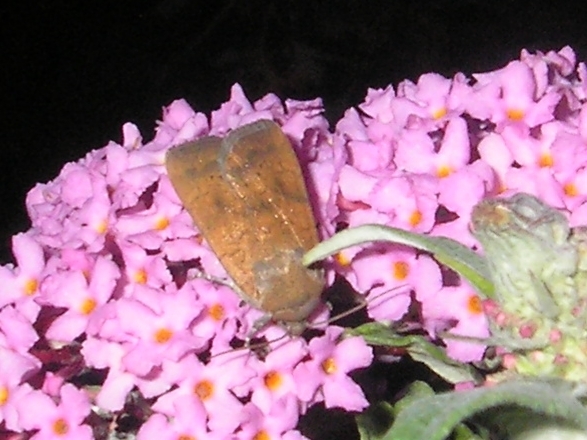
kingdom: Animalia
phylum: Arthropoda
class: Insecta
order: Lepidoptera
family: Noctuidae
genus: Noctua
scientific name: Noctua interjecta
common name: Least yellow underwing
